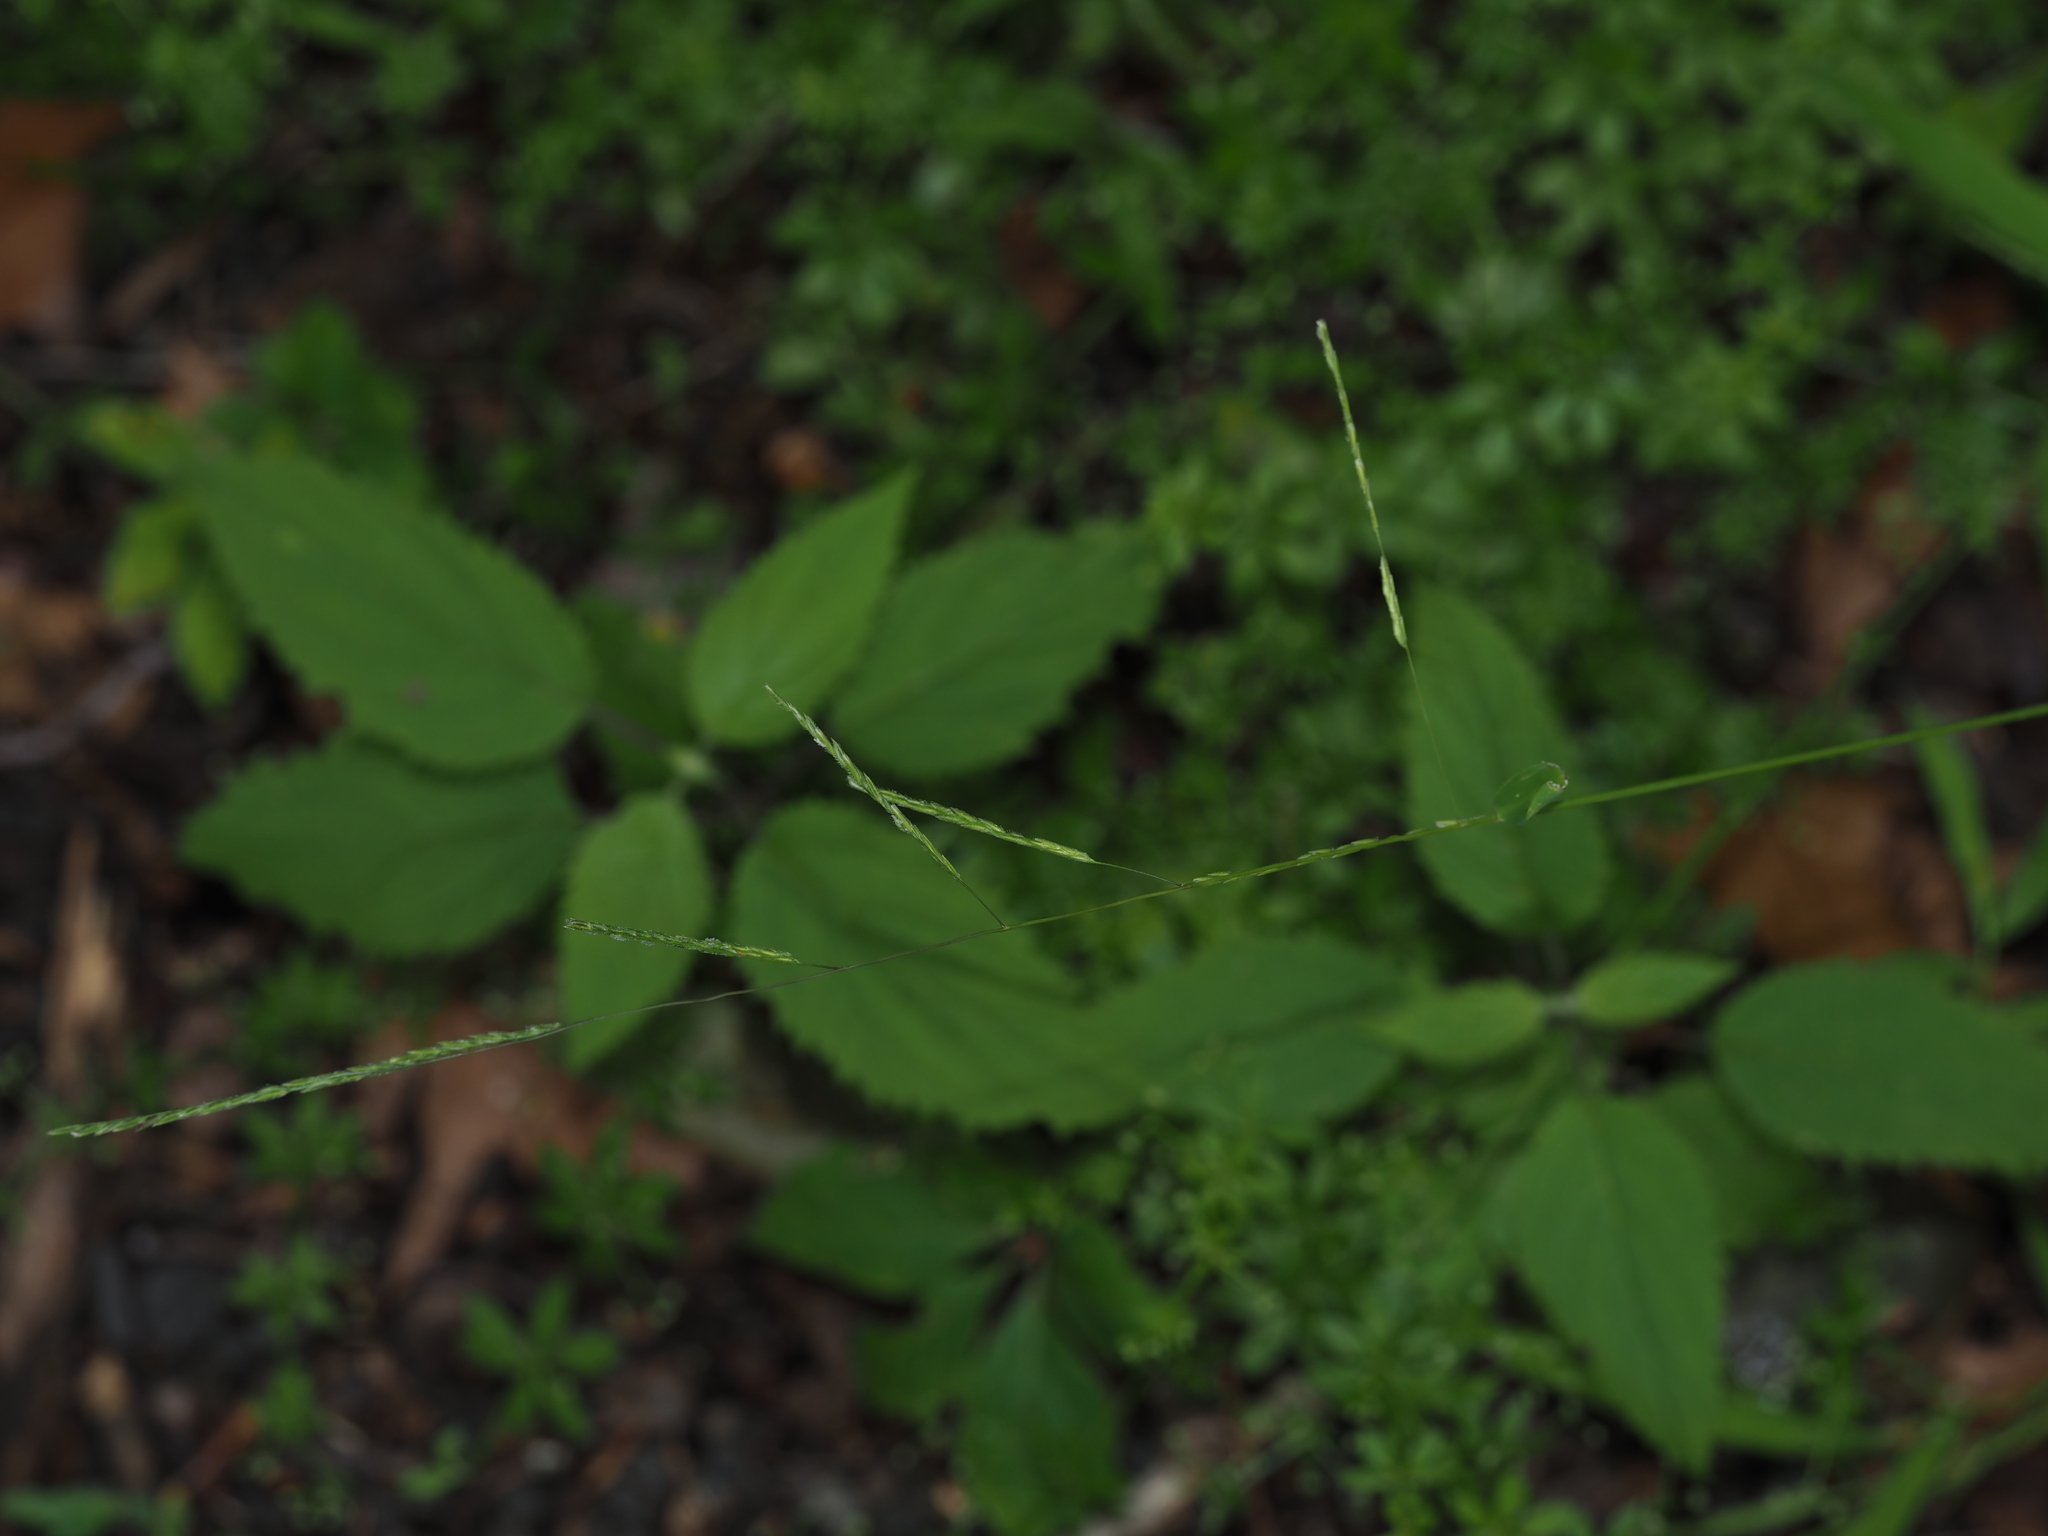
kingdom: Plantae
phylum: Tracheophyta
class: Liliopsida
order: Poales
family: Poaceae
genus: Leersia
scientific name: Leersia virginica
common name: White cutgrass
